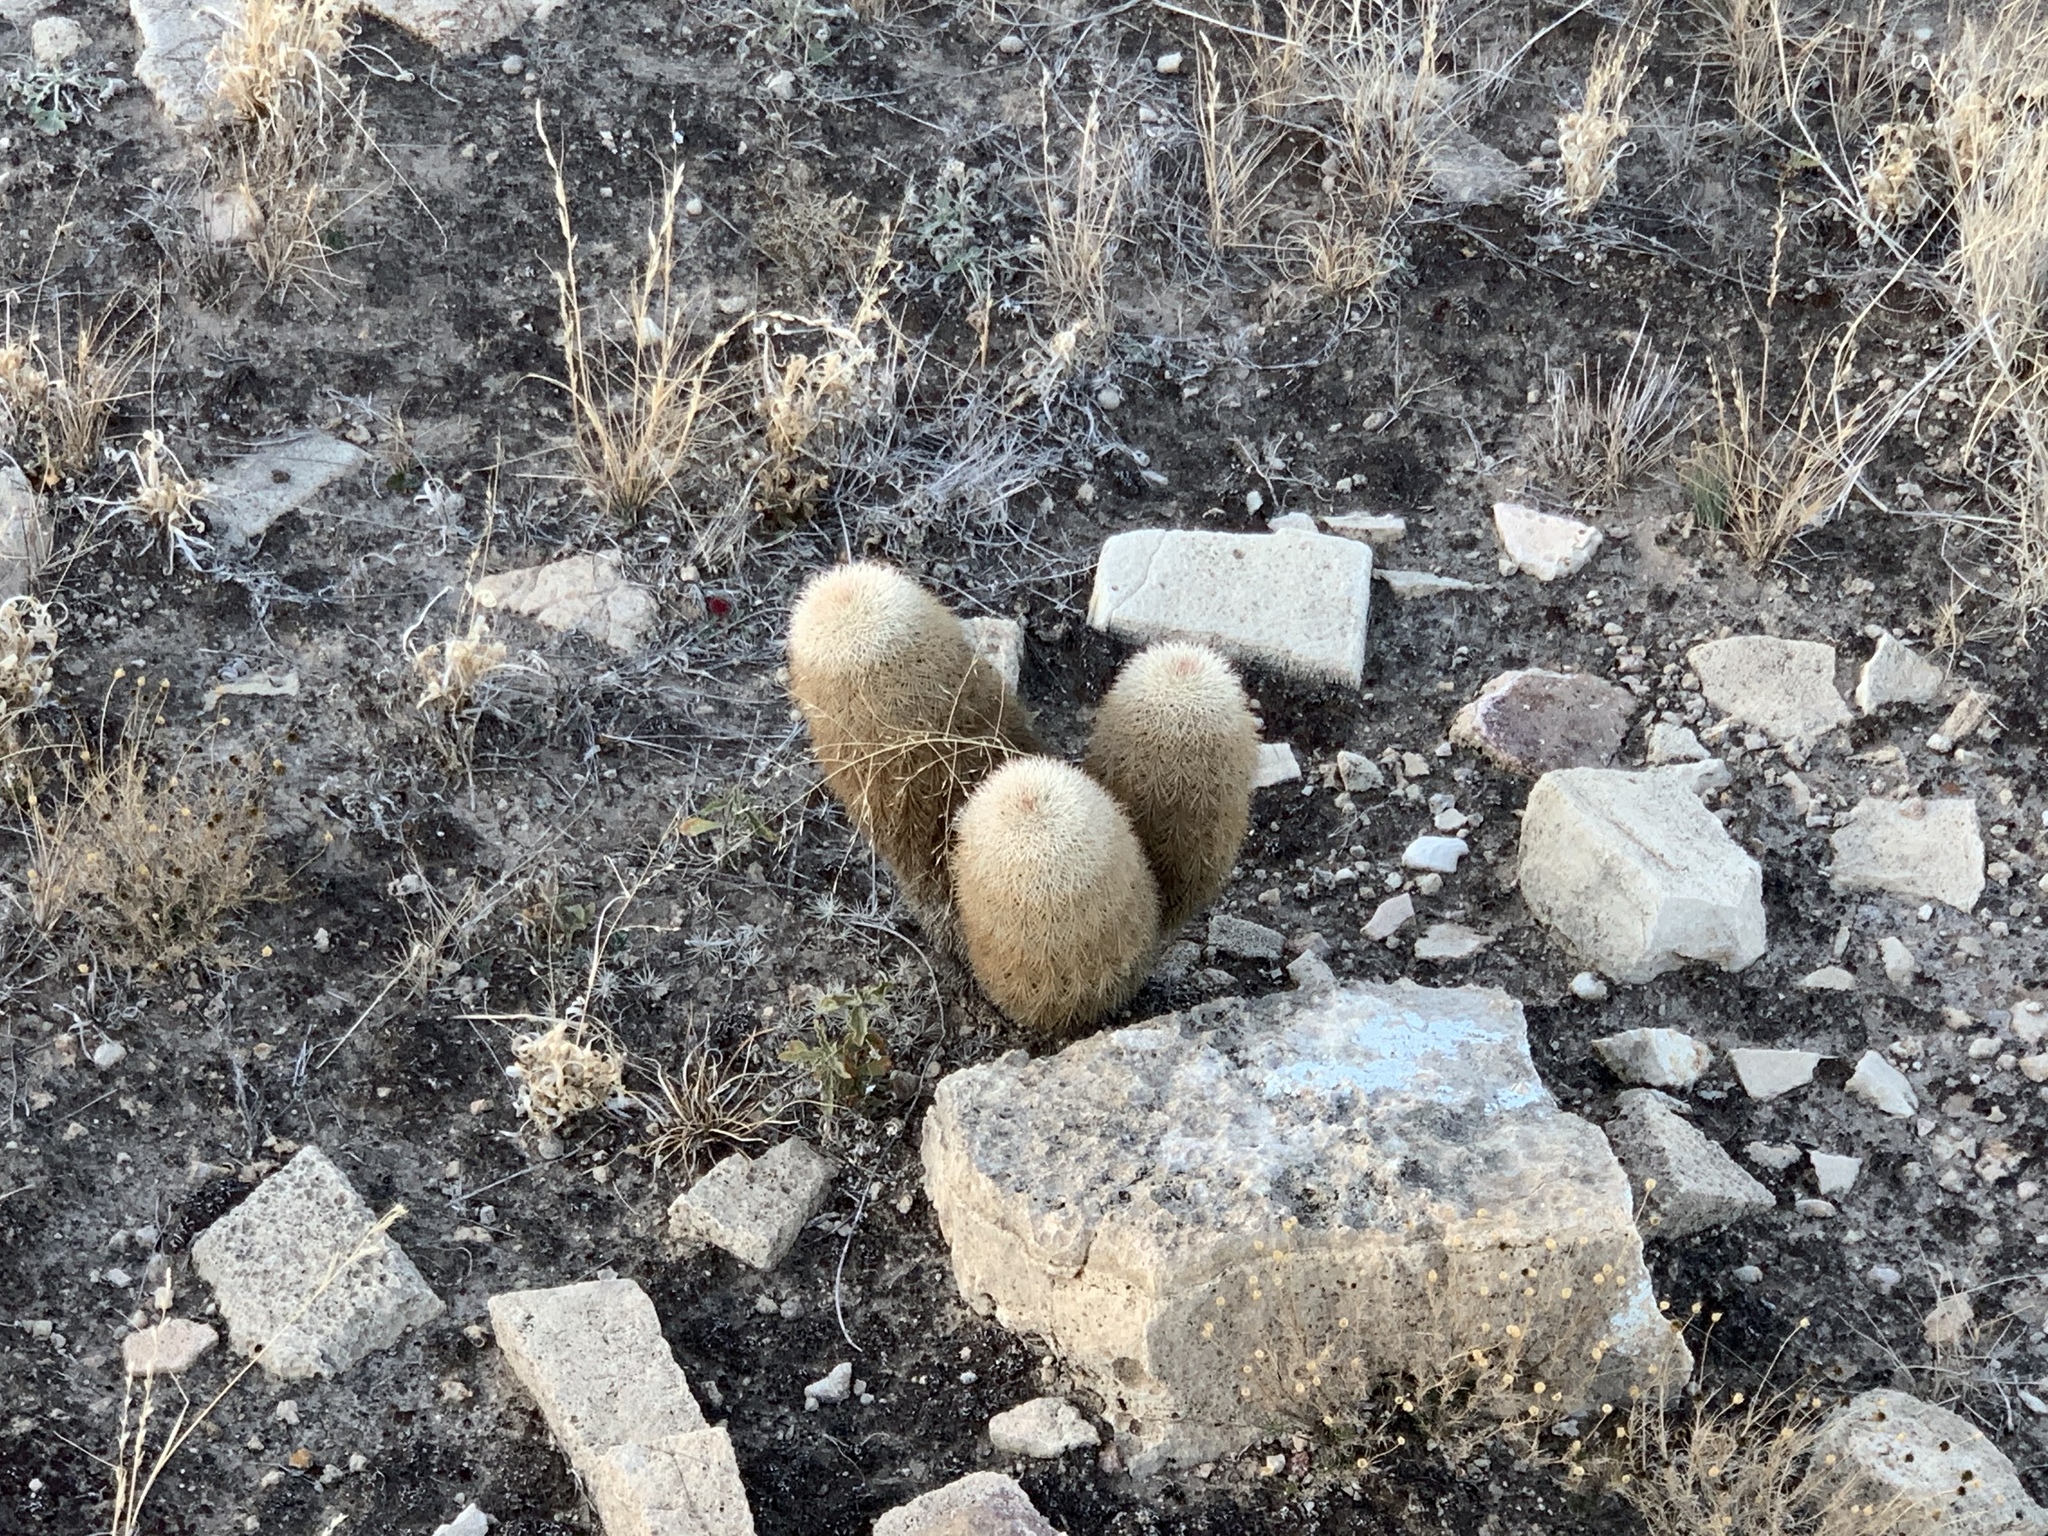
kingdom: Plantae
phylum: Tracheophyta
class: Magnoliopsida
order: Caryophyllales
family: Cactaceae
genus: Echinocereus
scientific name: Echinocereus dasyacanthus
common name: Spiny hedgehog cactus
